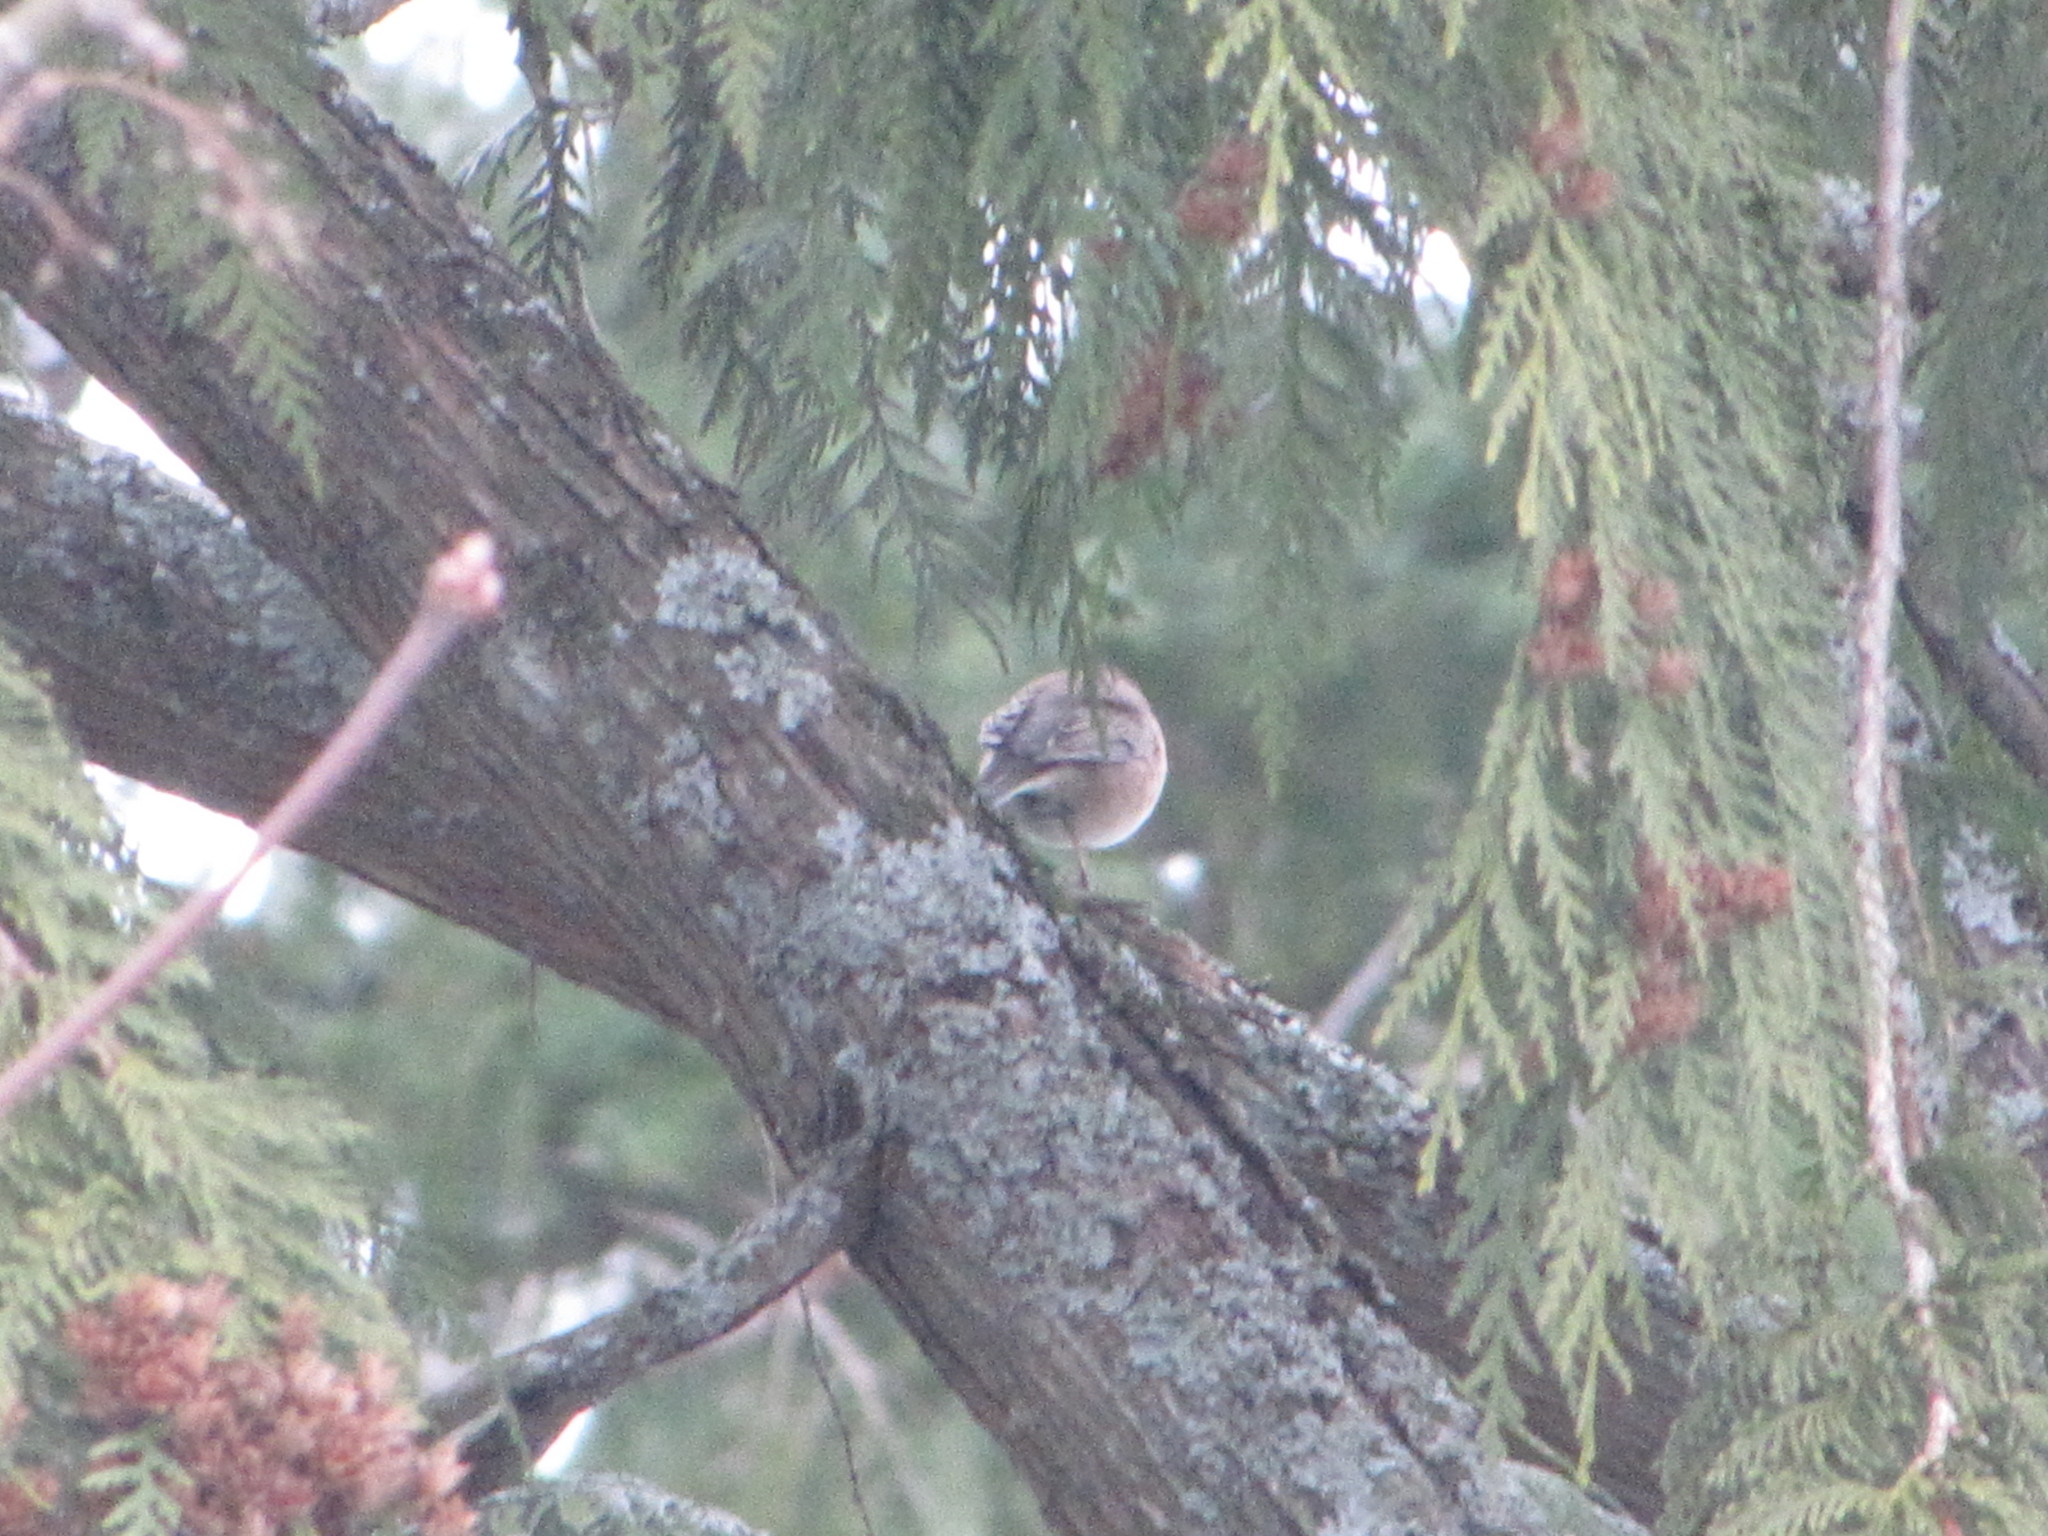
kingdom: Animalia
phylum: Chordata
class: Aves
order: Passeriformes
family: Passerellidae
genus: Junco
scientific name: Junco hyemalis
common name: Dark-eyed junco
